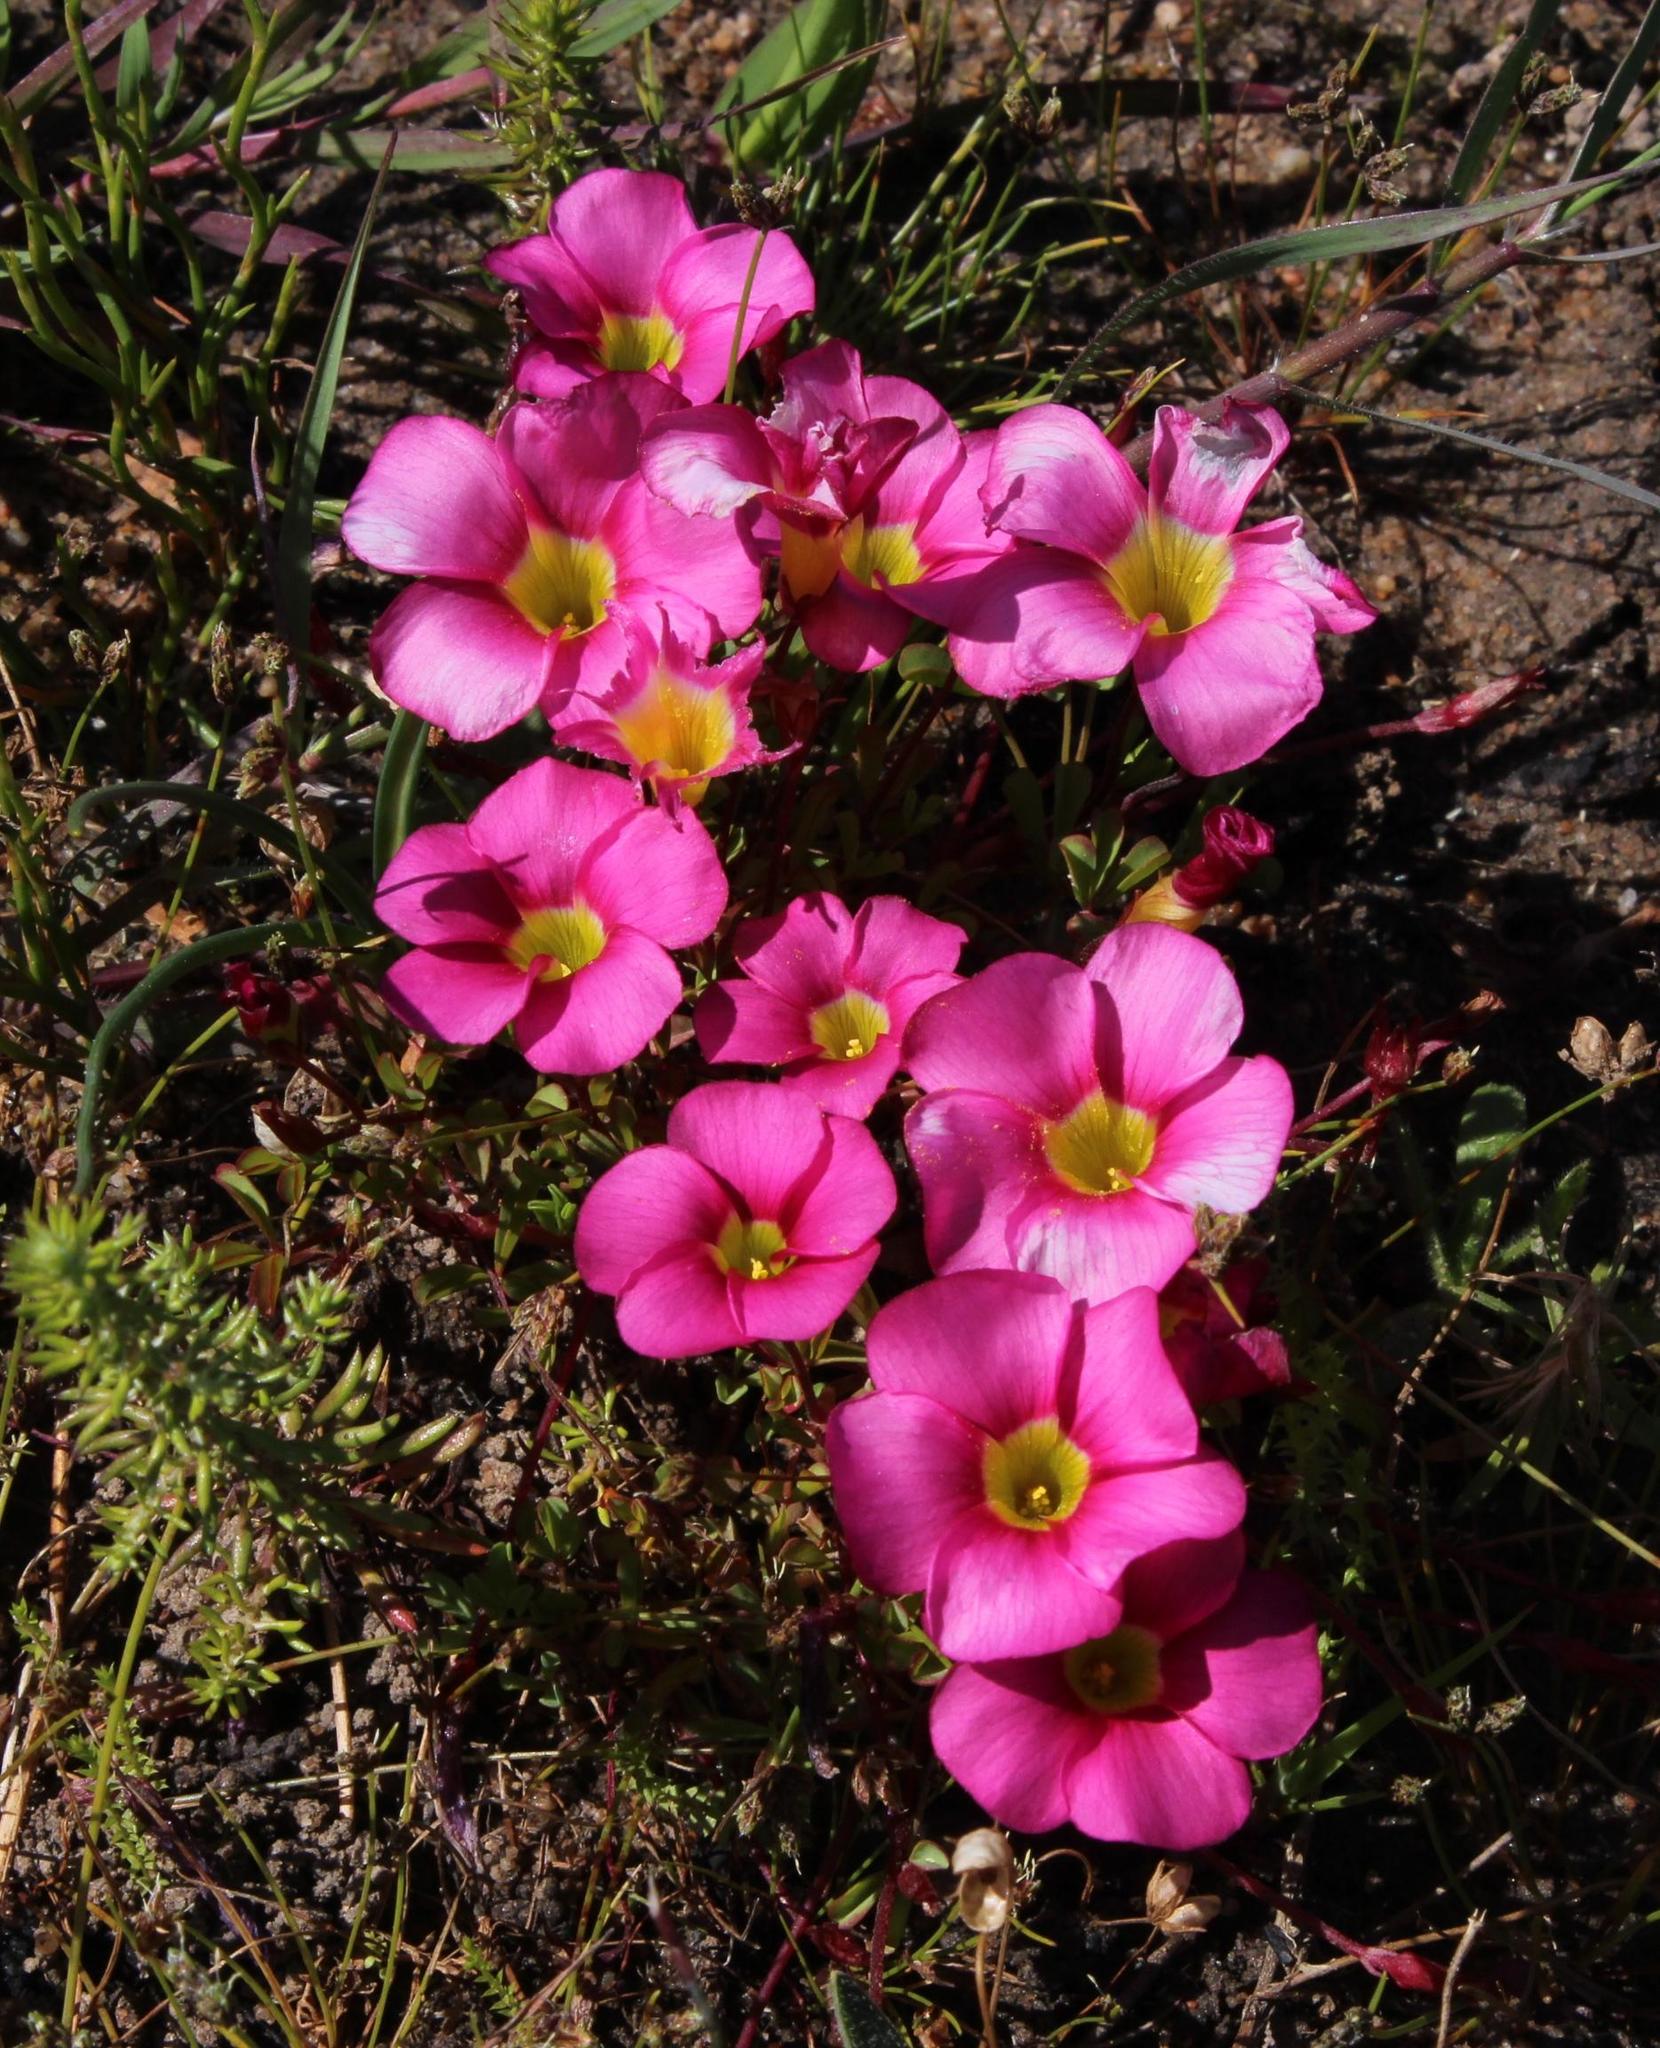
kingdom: Plantae
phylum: Tracheophyta
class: Magnoliopsida
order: Oxalidales
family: Oxalidaceae
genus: Oxalis
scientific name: Oxalis glabra
